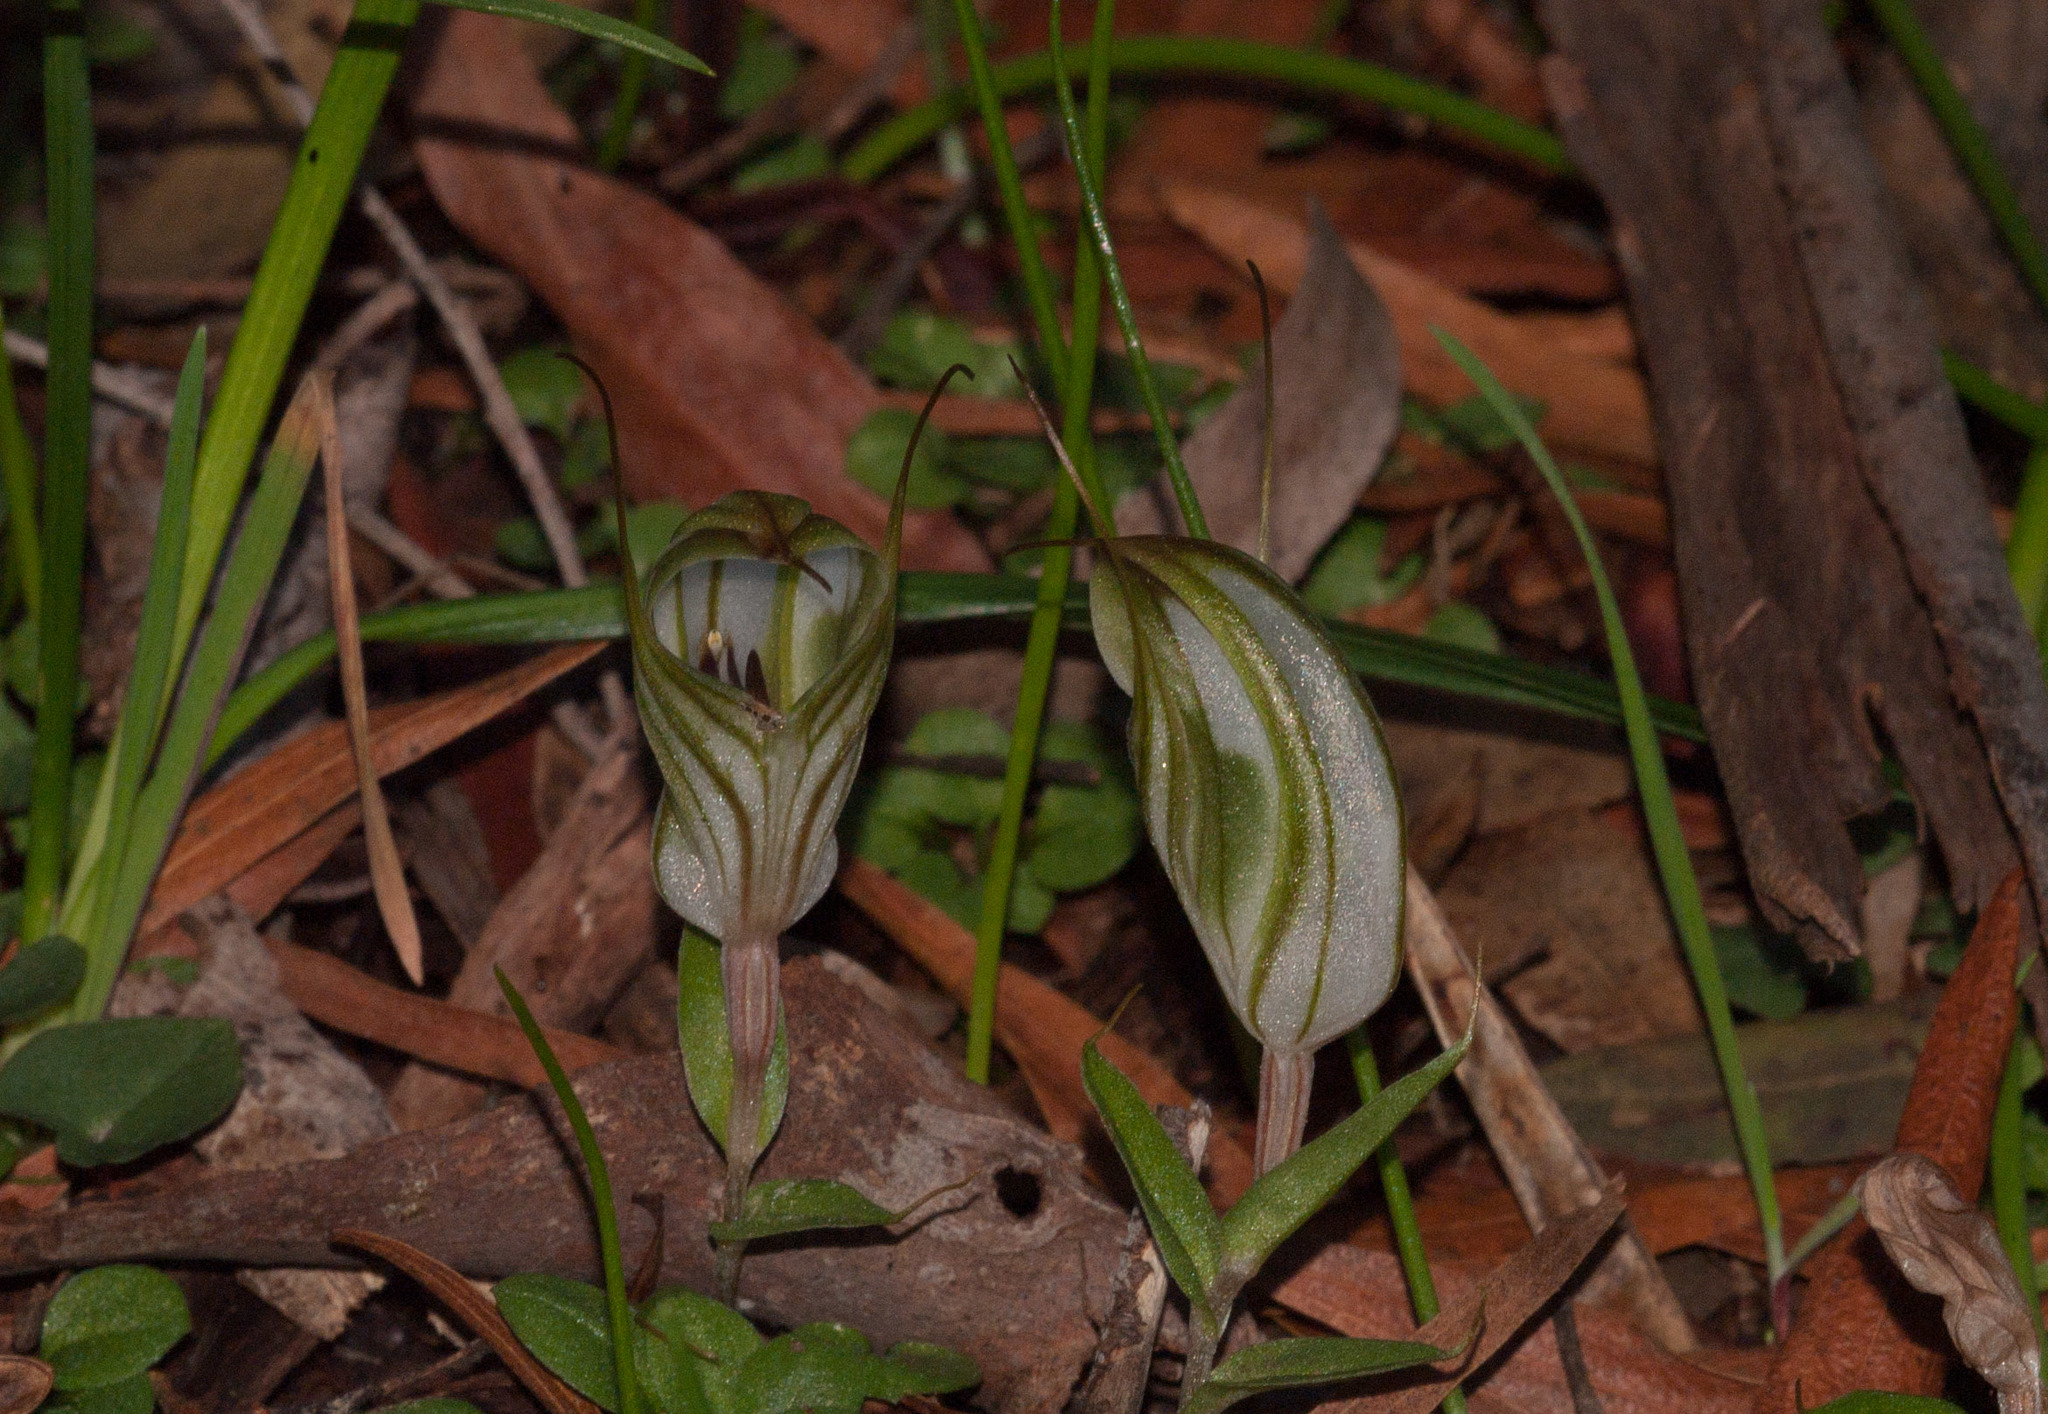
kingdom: Plantae
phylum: Tracheophyta
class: Liliopsida
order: Asparagales
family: Orchidaceae
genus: Pterostylis
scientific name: Pterostylis robusta
